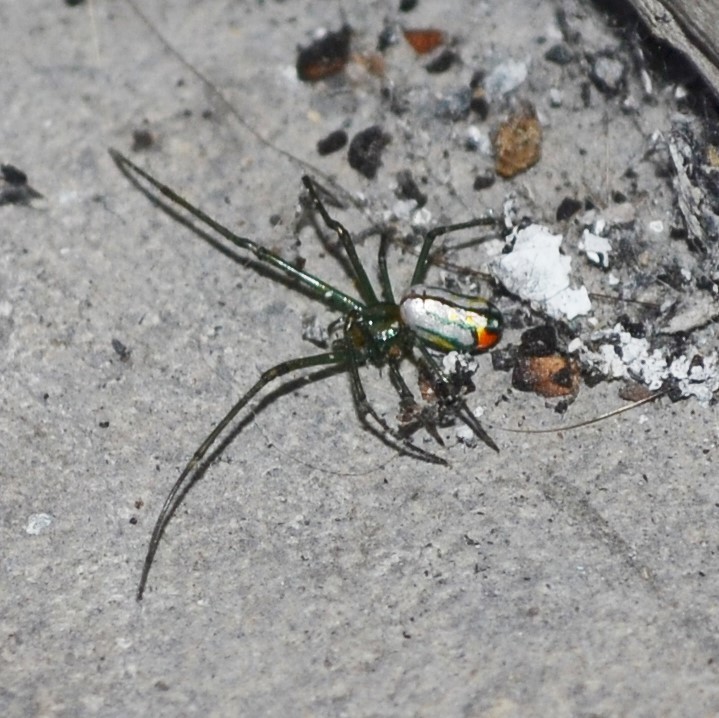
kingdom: Animalia
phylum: Arthropoda
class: Arachnida
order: Araneae
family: Tetragnathidae
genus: Leucauge
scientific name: Leucauge argyrobapta
